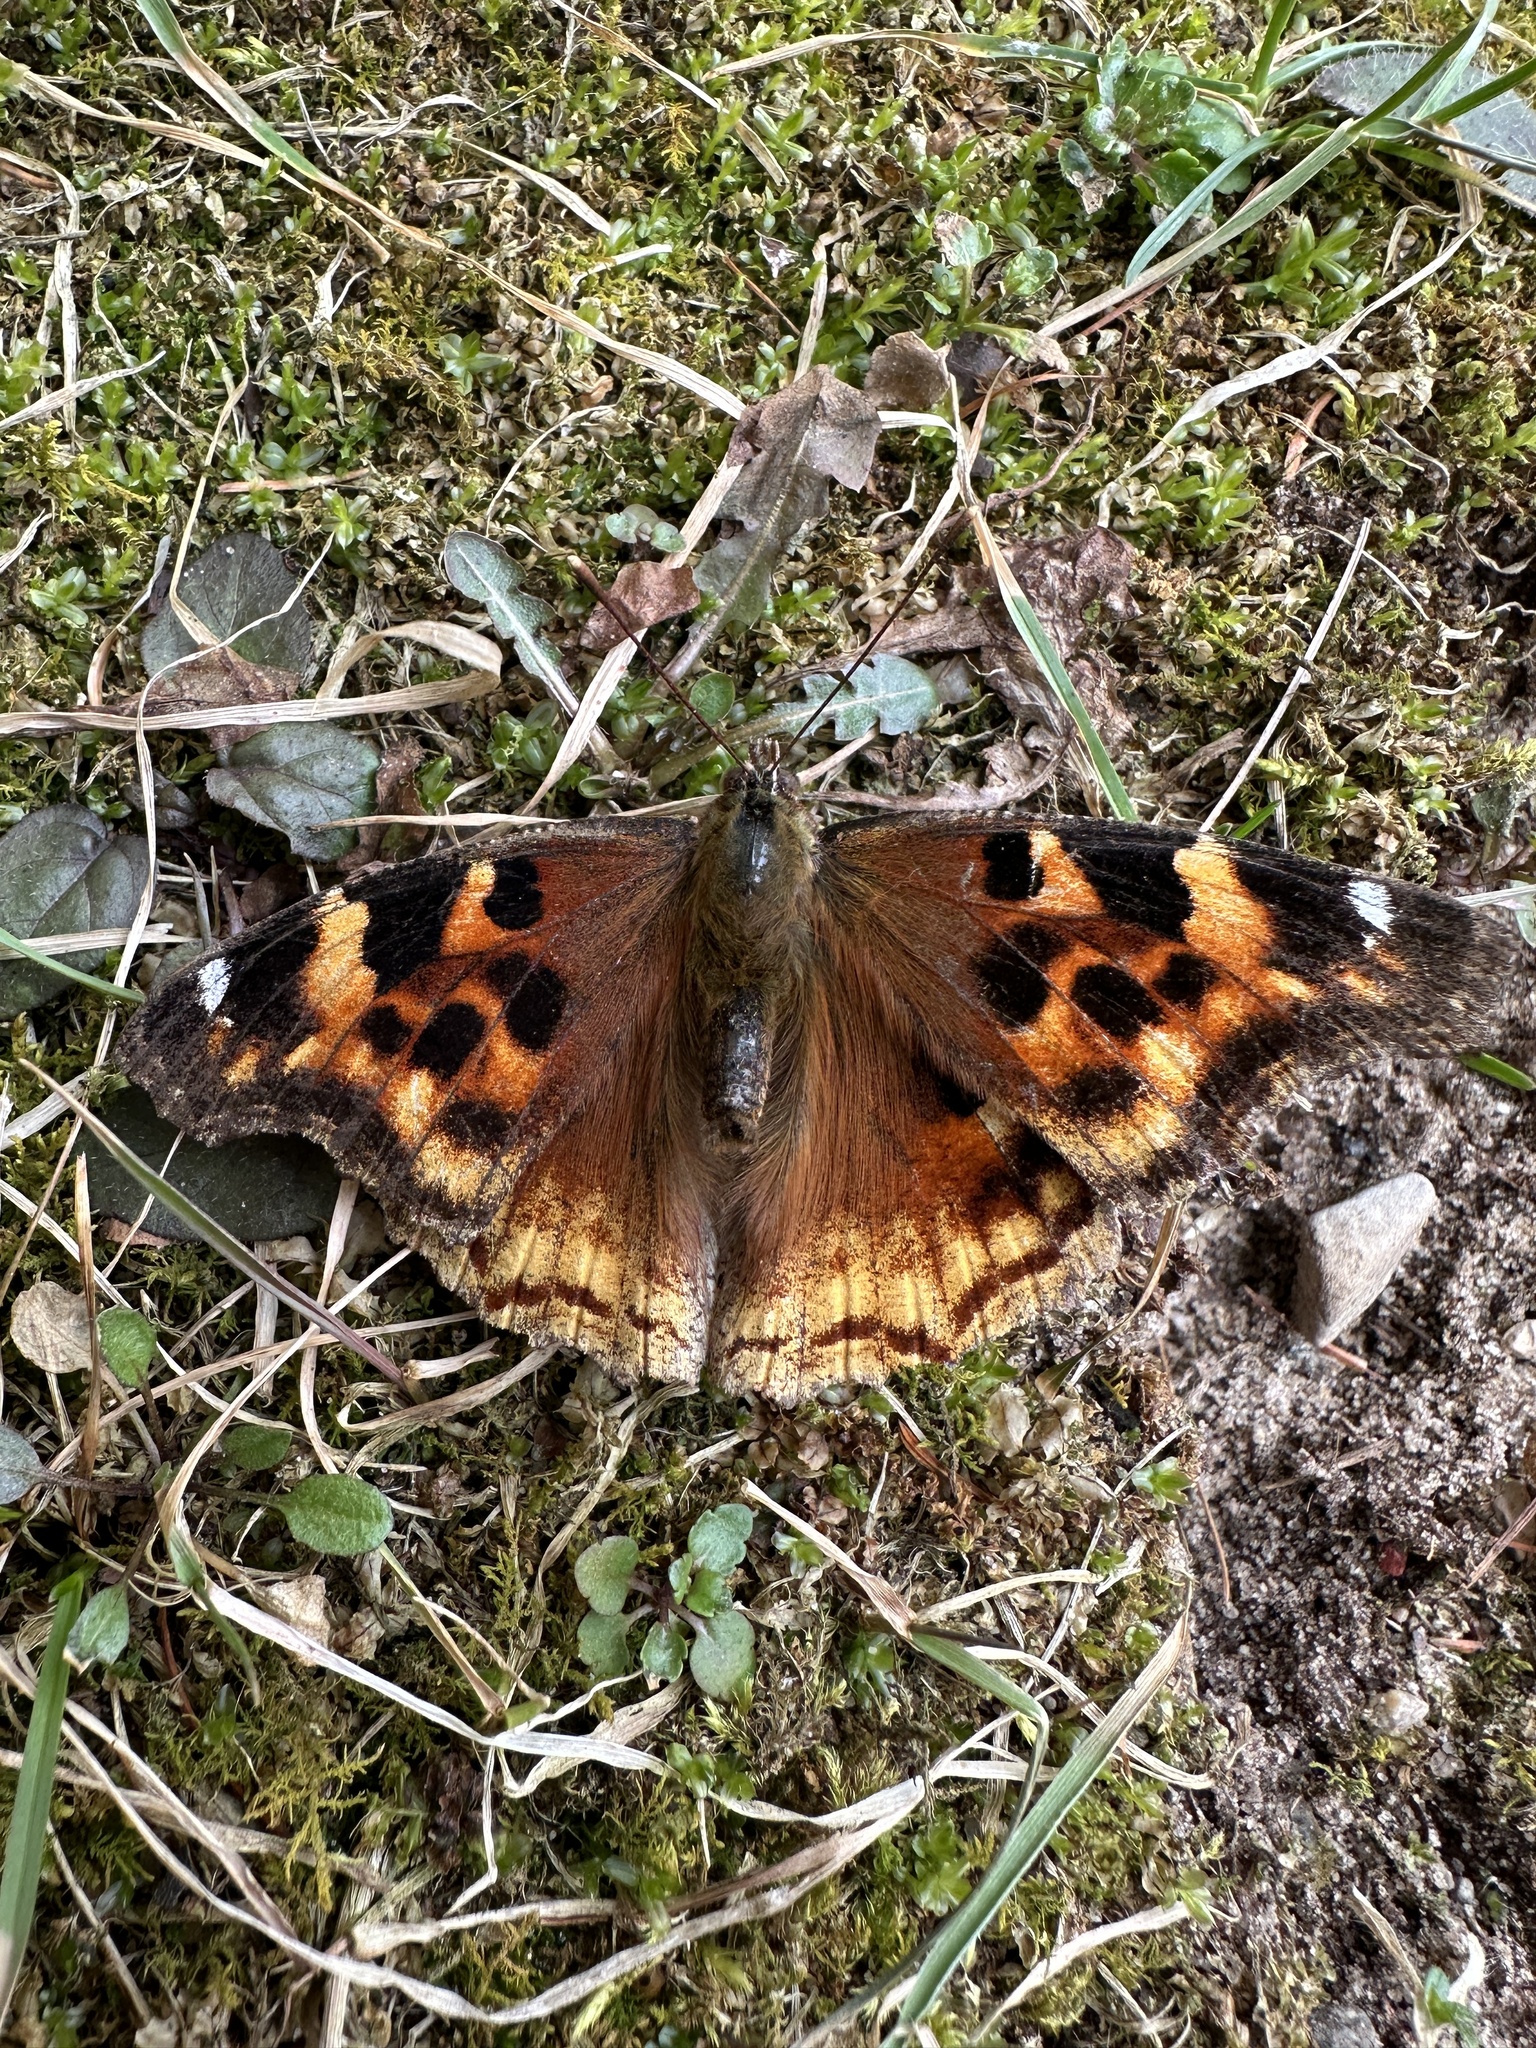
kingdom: Animalia
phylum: Arthropoda
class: Insecta
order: Lepidoptera
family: Nymphalidae
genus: Polygonia
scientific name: Polygonia vaualbum
